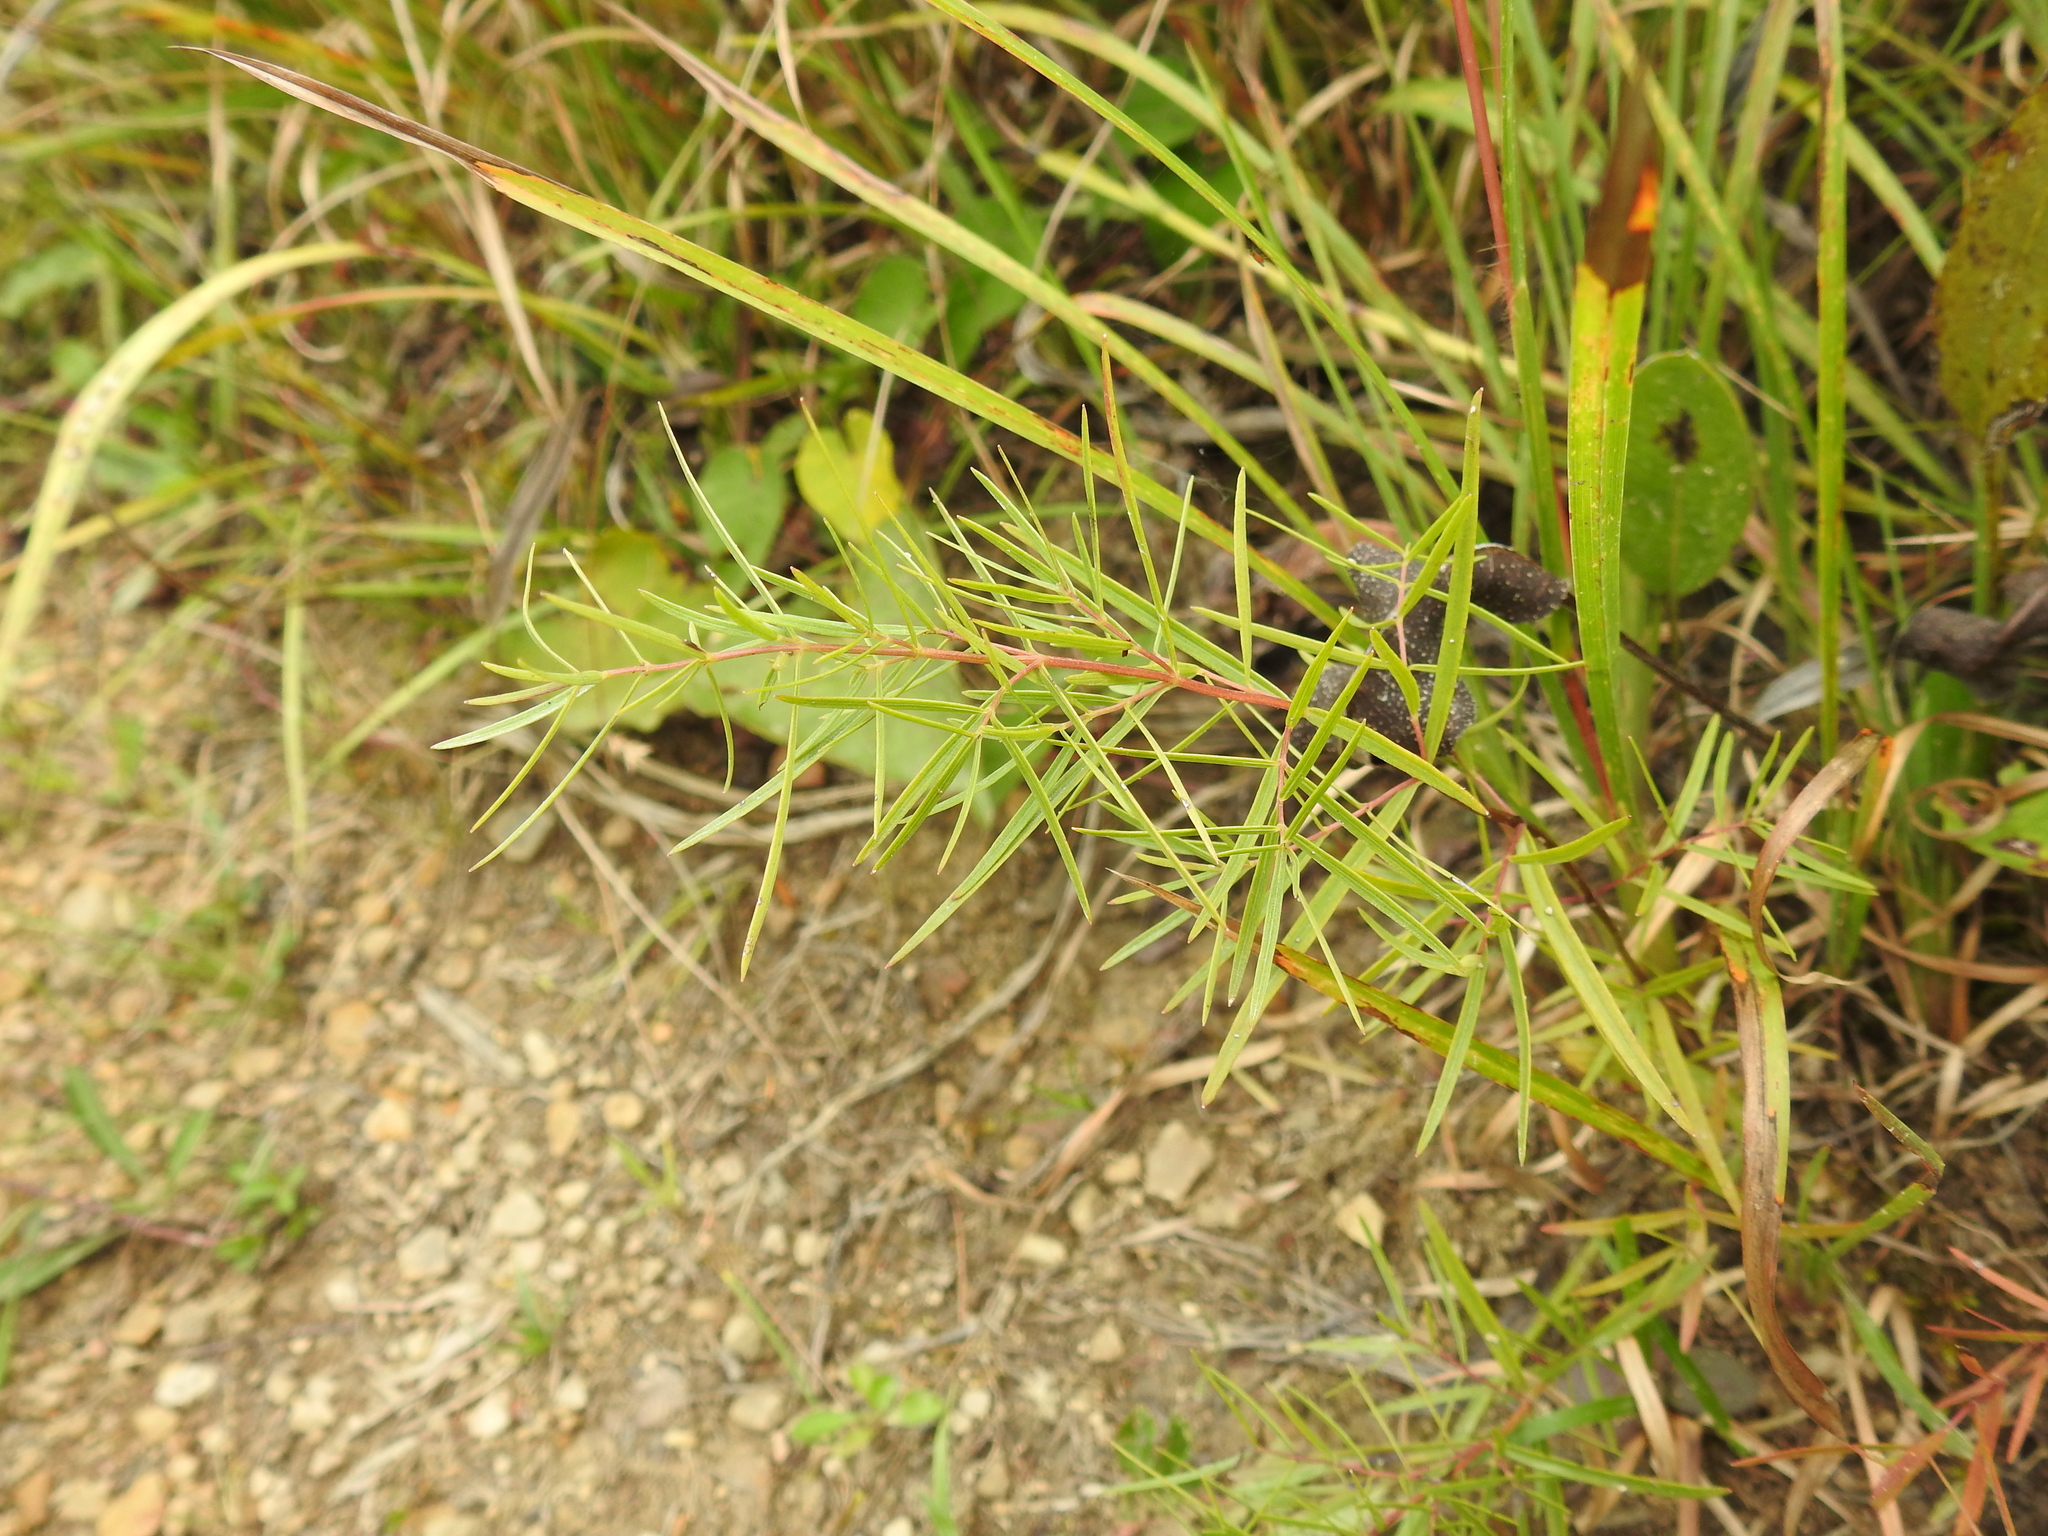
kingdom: Plantae
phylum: Tracheophyta
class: Magnoliopsida
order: Lamiales
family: Lamiaceae
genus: Pycnanthemum
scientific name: Pycnanthemum tenuifolium
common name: Narrow-leaf mountain-mint
